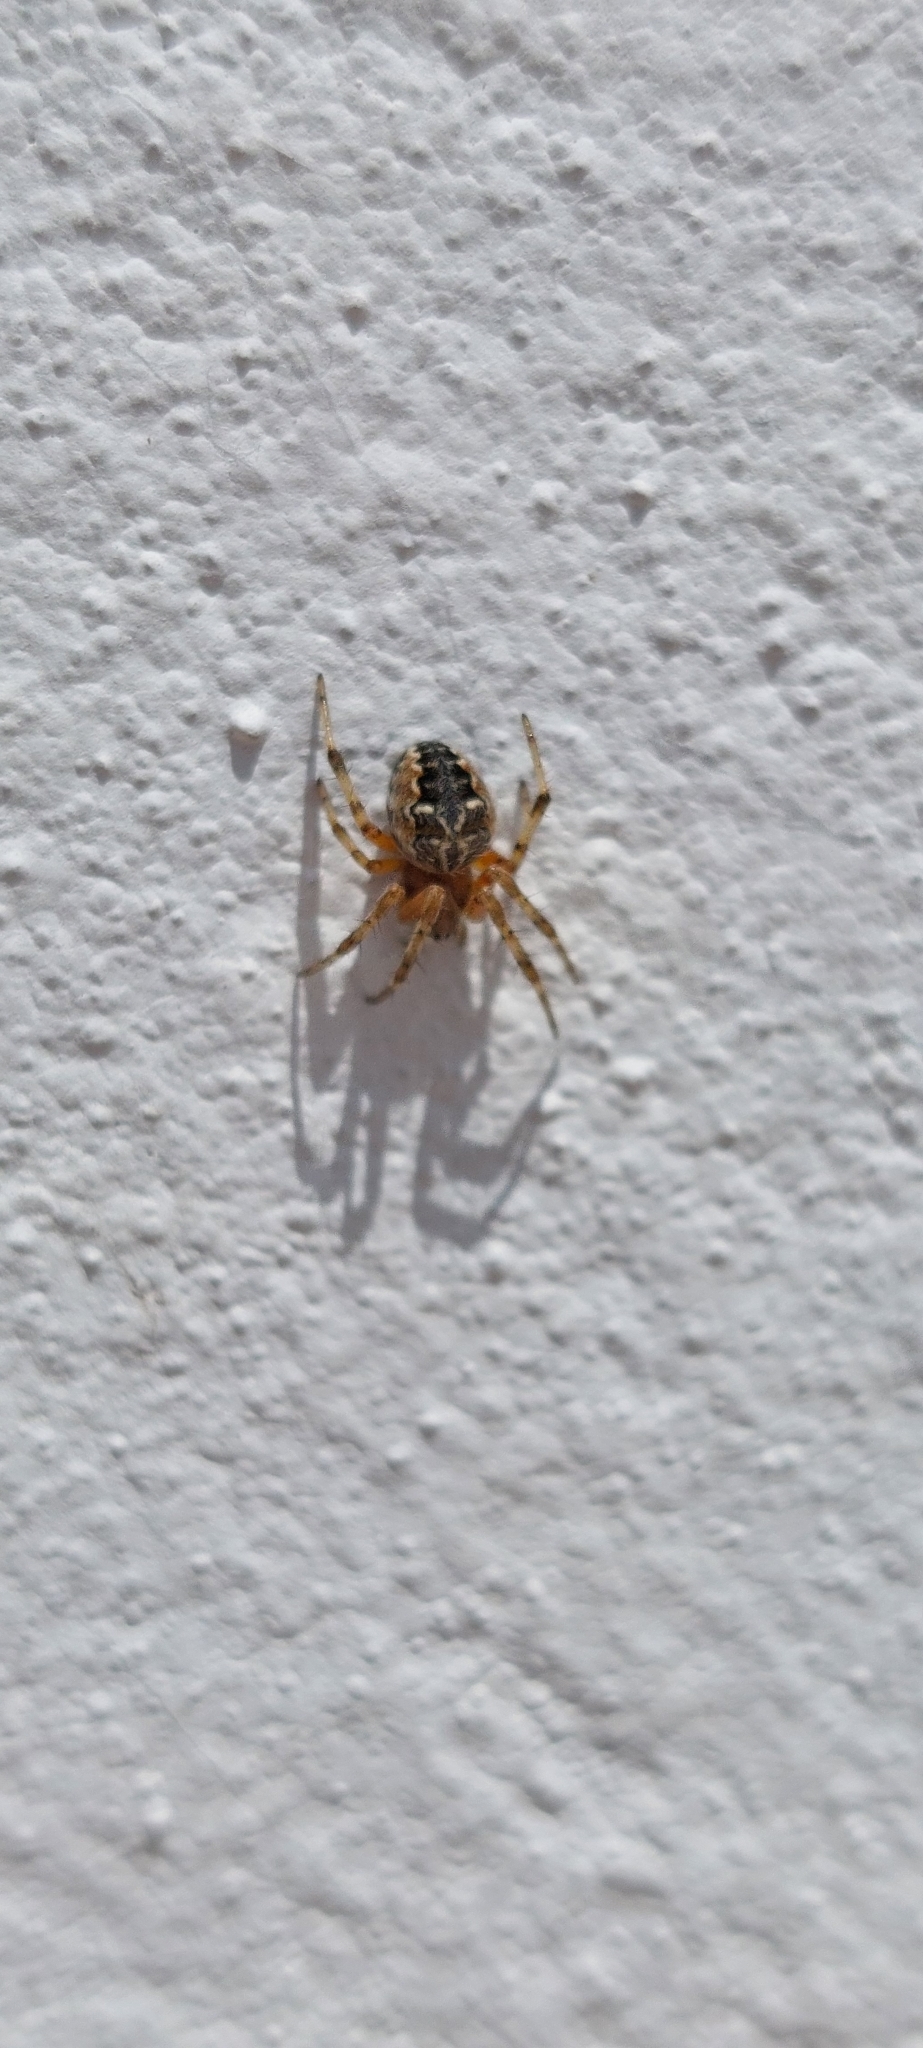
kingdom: Animalia
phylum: Arthropoda
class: Arachnida
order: Araneae
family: Araneidae
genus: Metepeira
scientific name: Metepeira
